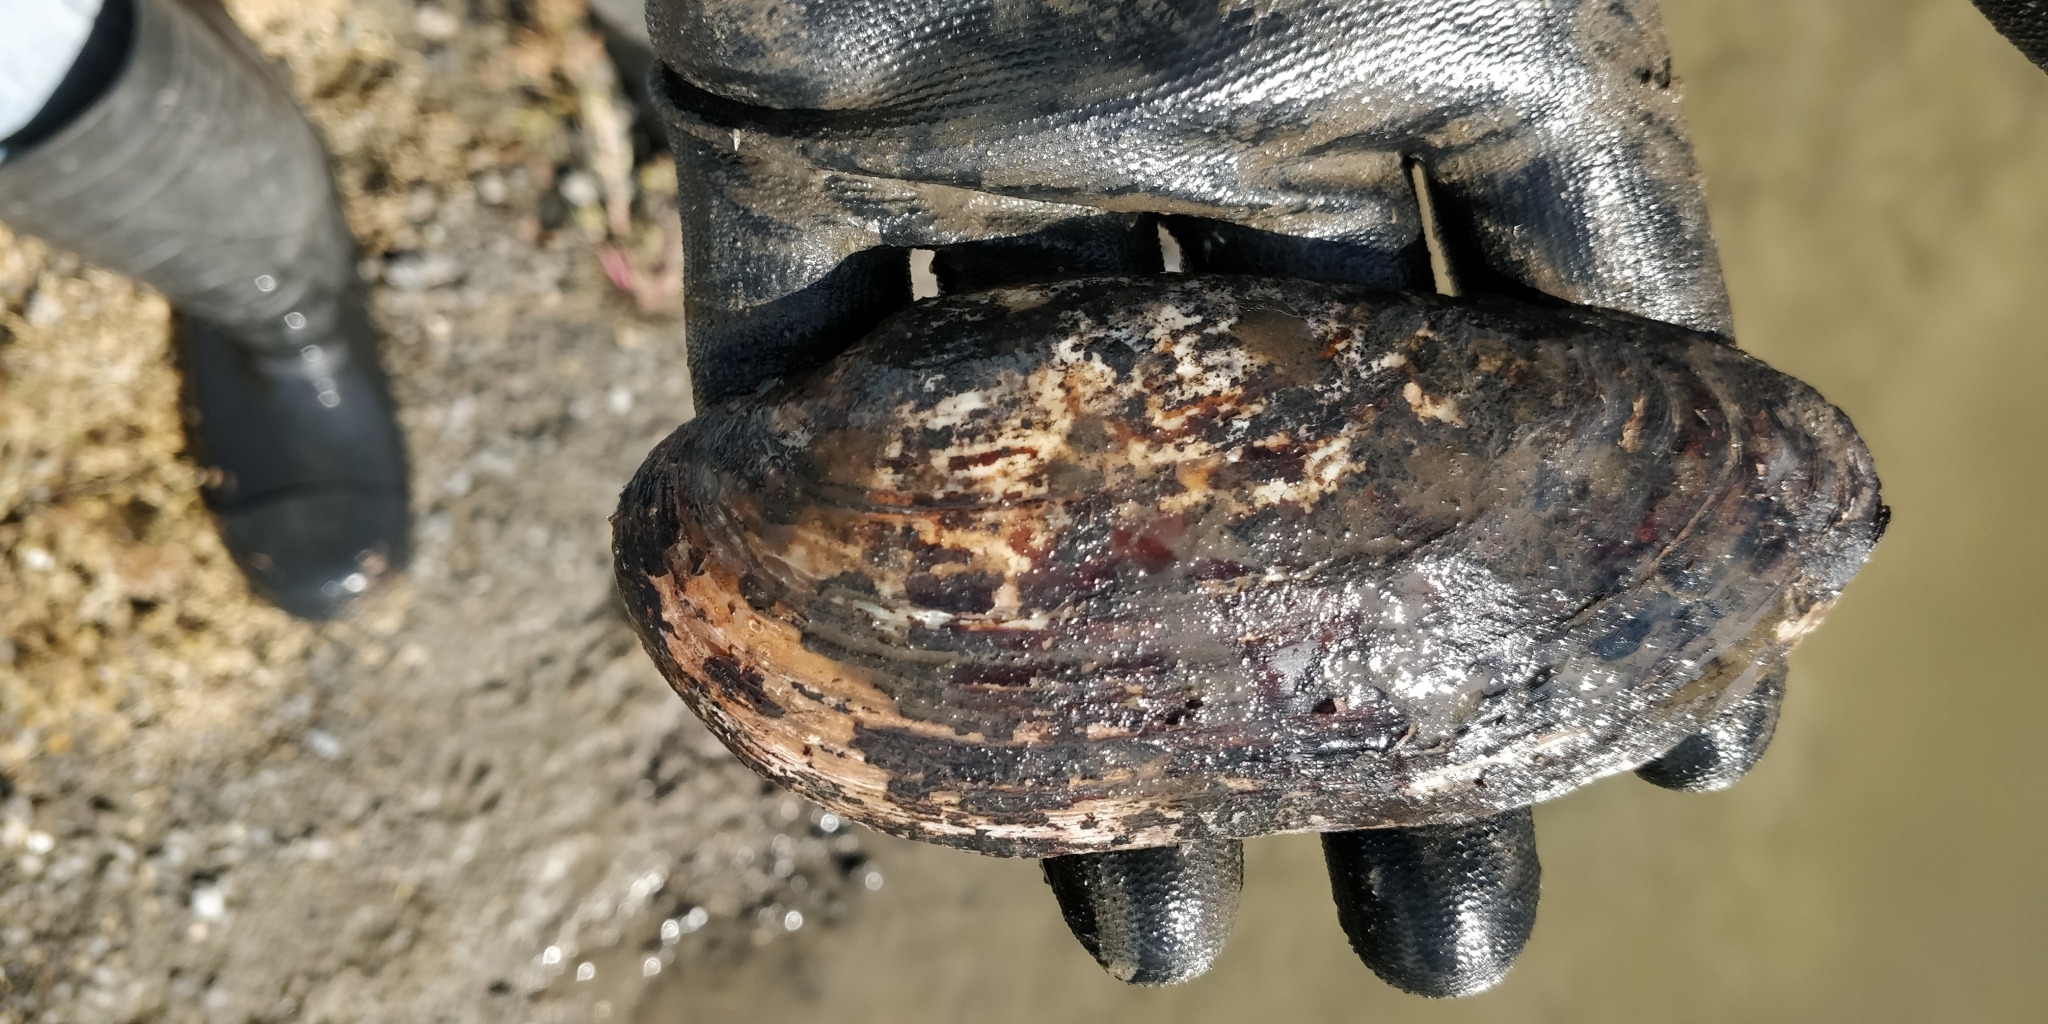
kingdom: Animalia
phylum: Mollusca
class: Bivalvia
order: Unionida
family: Unionidae
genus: Ligumia
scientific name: Ligumia recta
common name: Black sandshell
